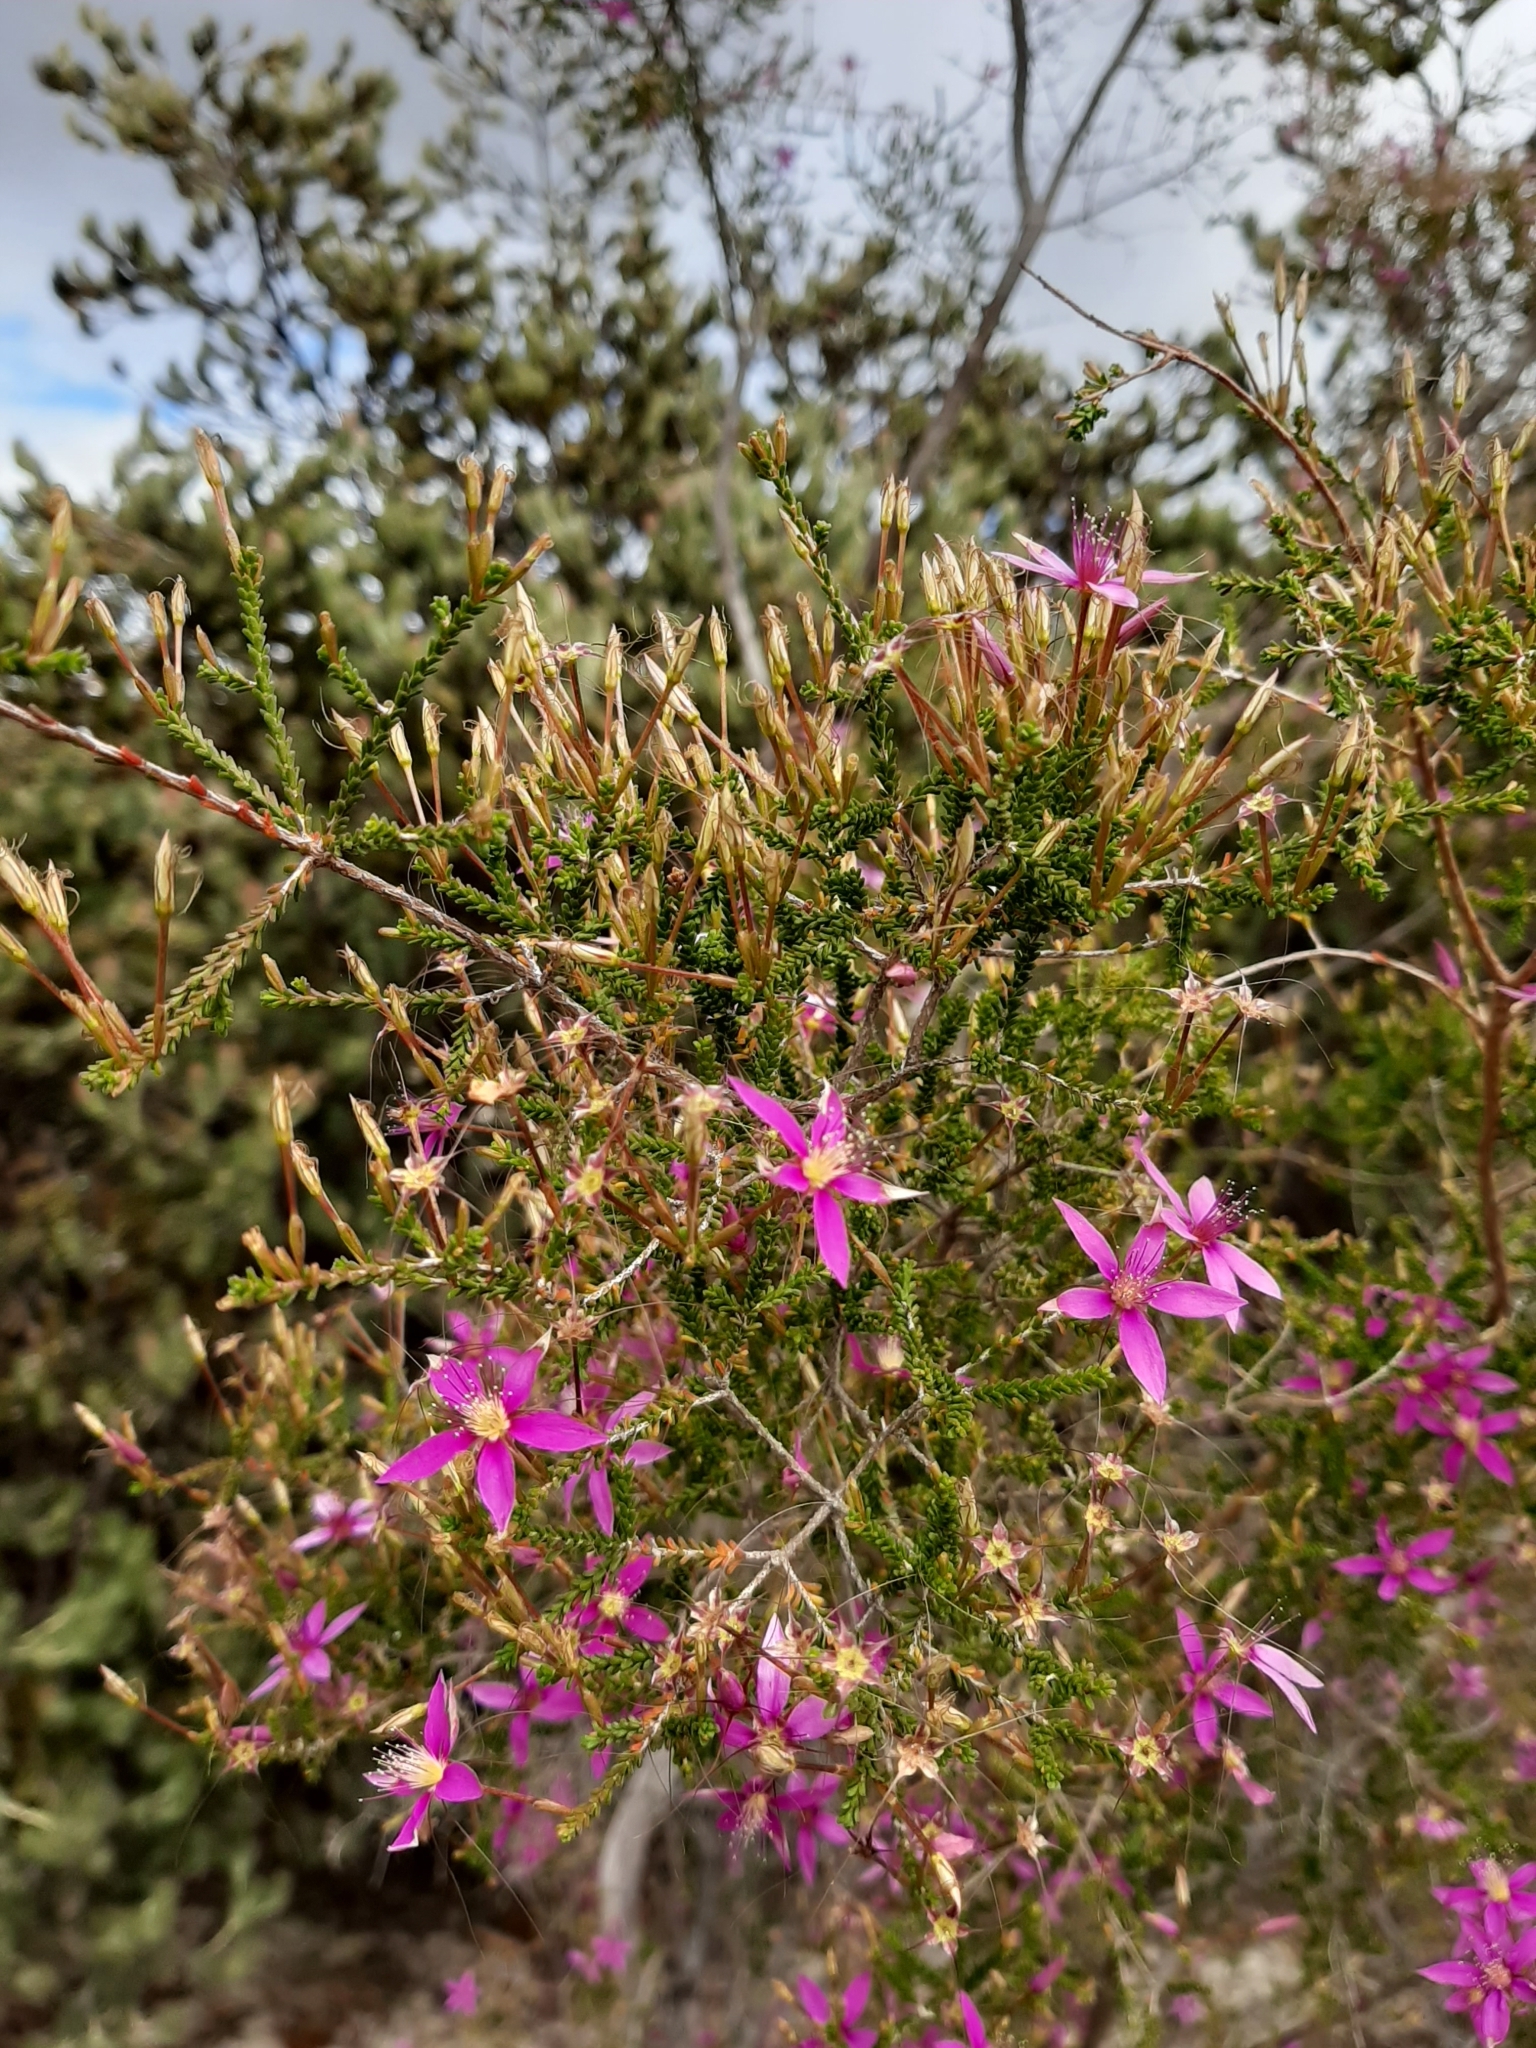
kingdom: Plantae
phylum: Tracheophyta
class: Magnoliopsida
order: Myrtales
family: Myrtaceae
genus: Calytrix
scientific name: Calytrix fraseri
